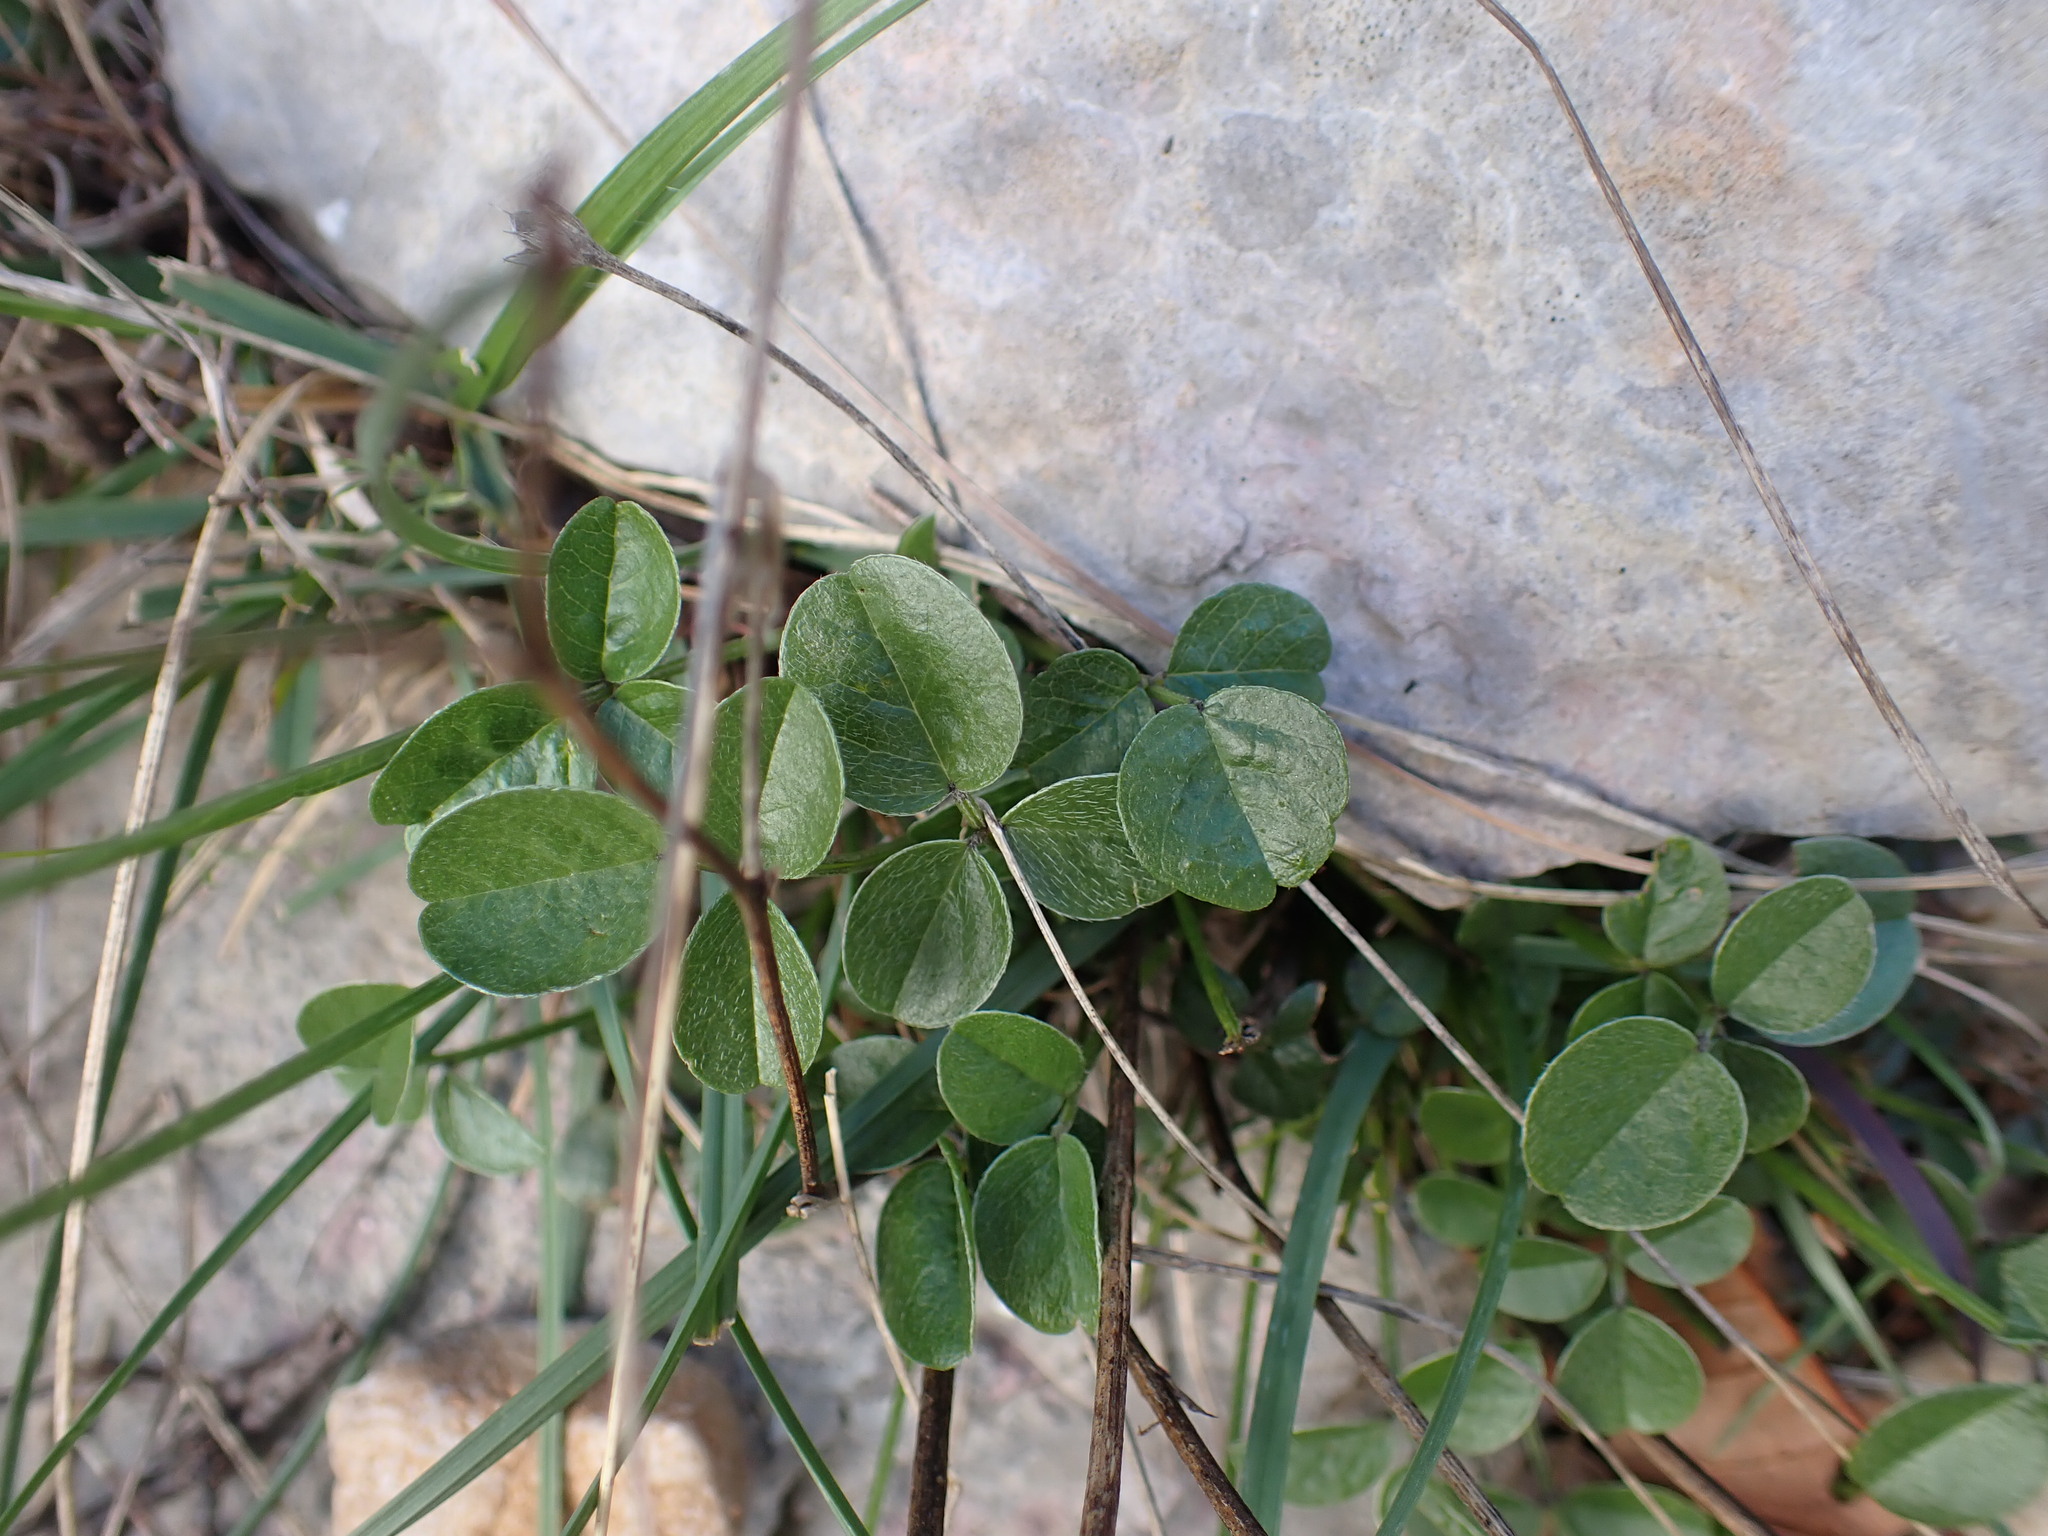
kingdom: Plantae
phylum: Tracheophyta
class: Magnoliopsida
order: Fabales
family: Fabaceae
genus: Bituminaria
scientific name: Bituminaria bituminosa
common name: Arabian pea
